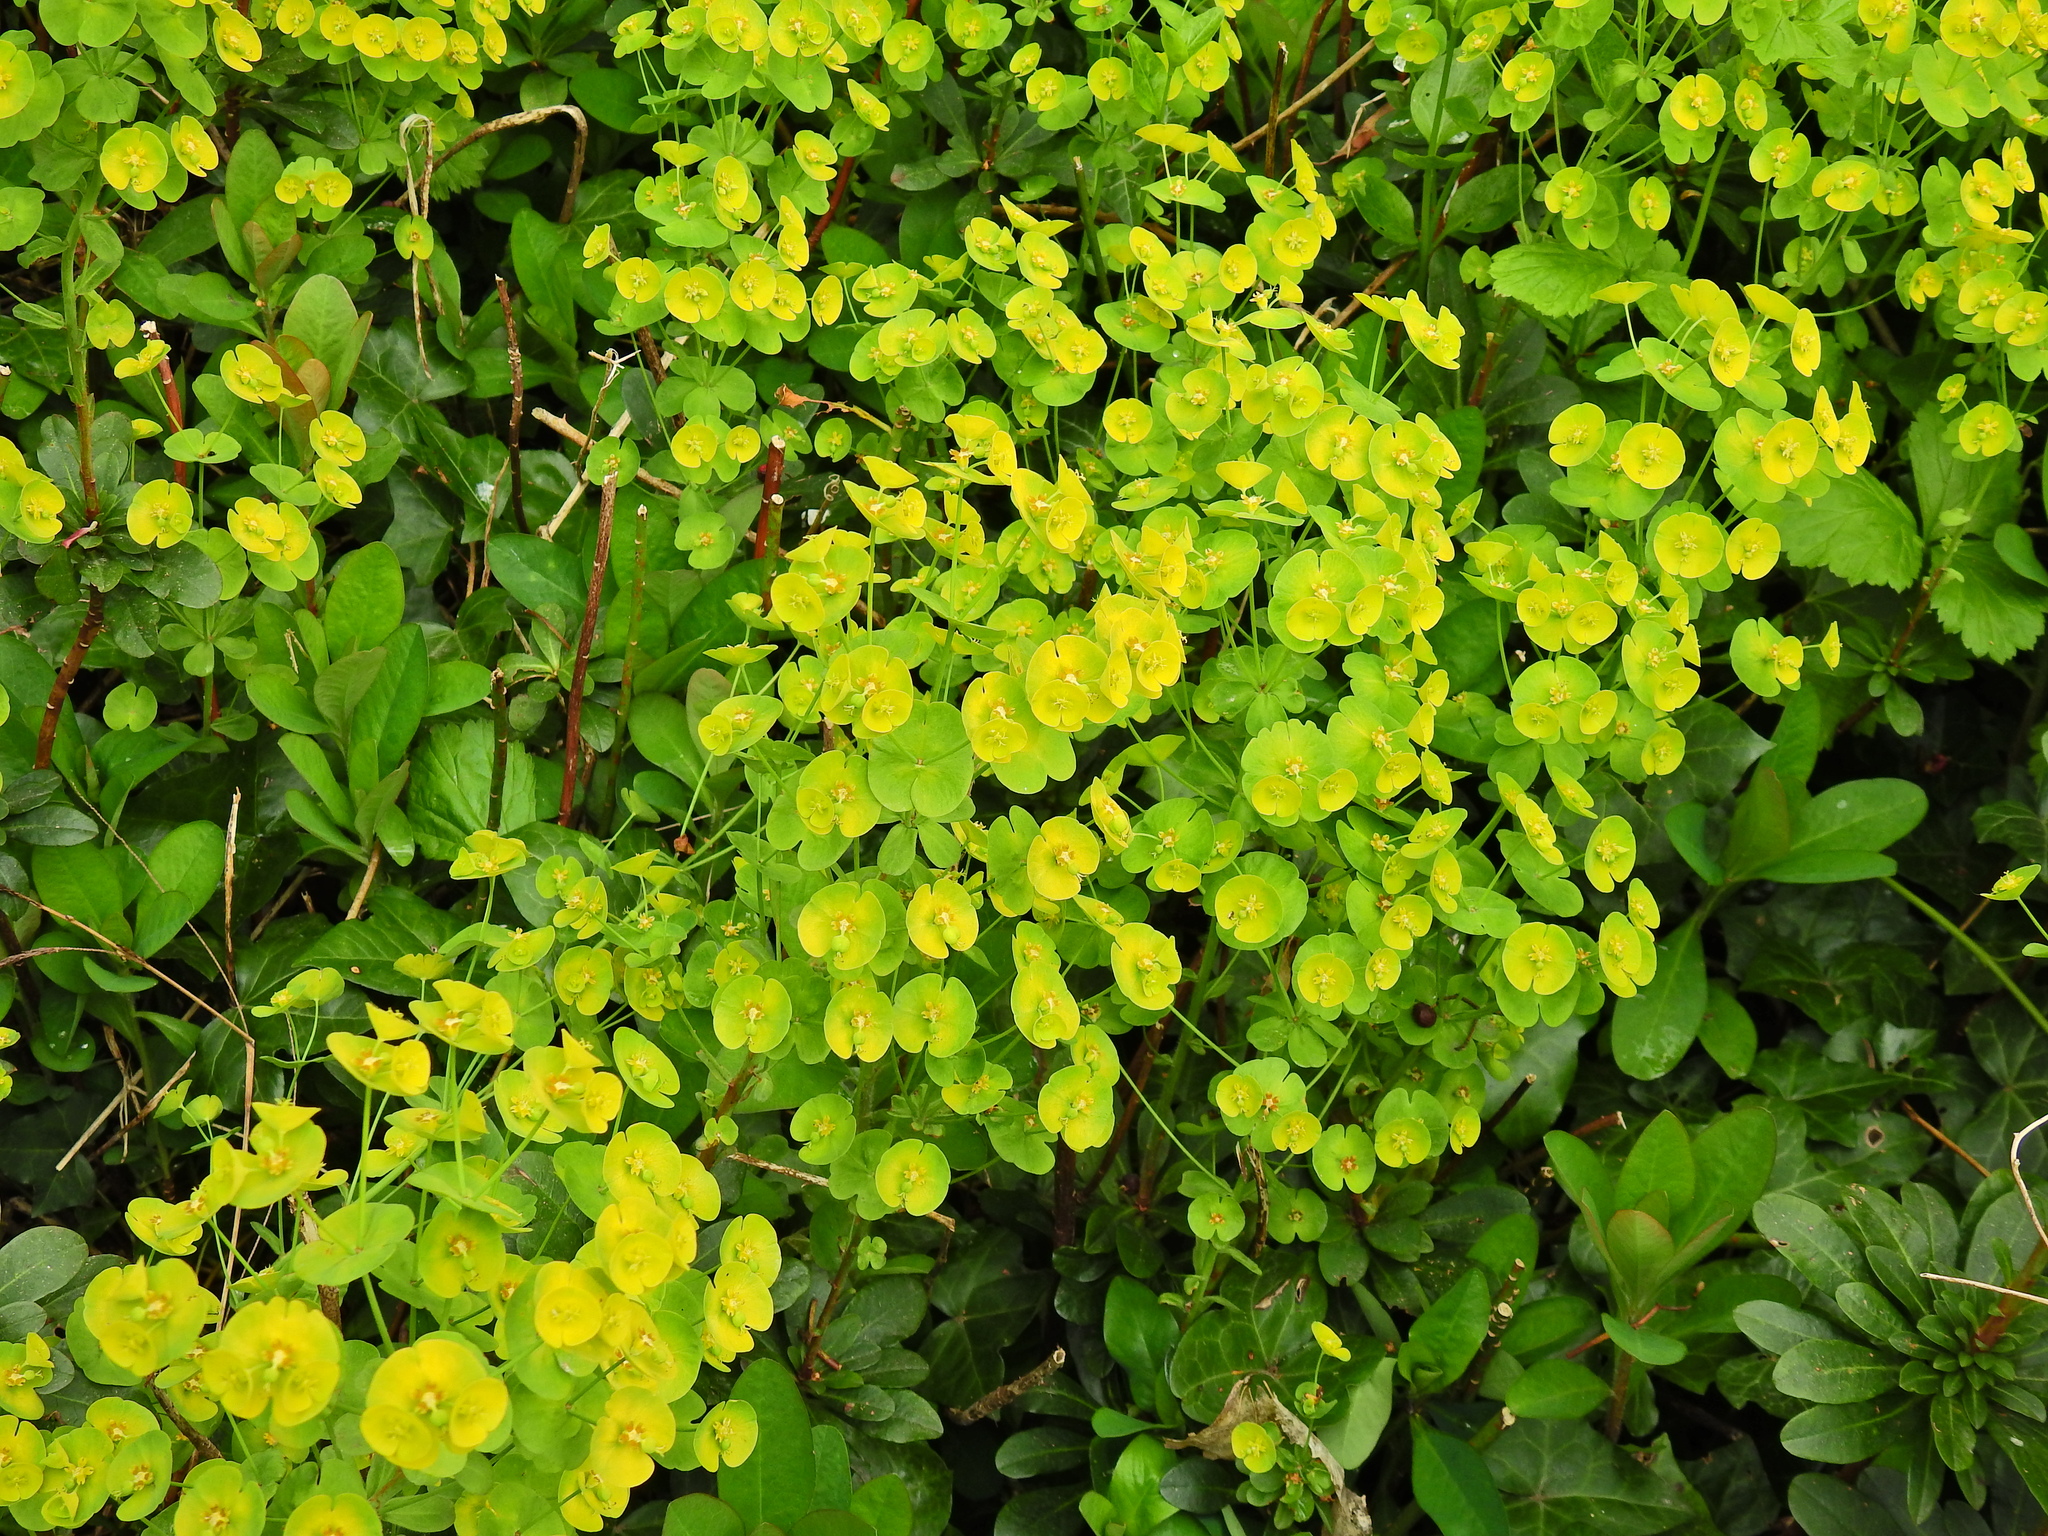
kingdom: Plantae
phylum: Tracheophyta
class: Magnoliopsida
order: Malpighiales
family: Euphorbiaceae
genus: Euphorbia
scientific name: Euphorbia amygdaloides
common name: Wood spurge
